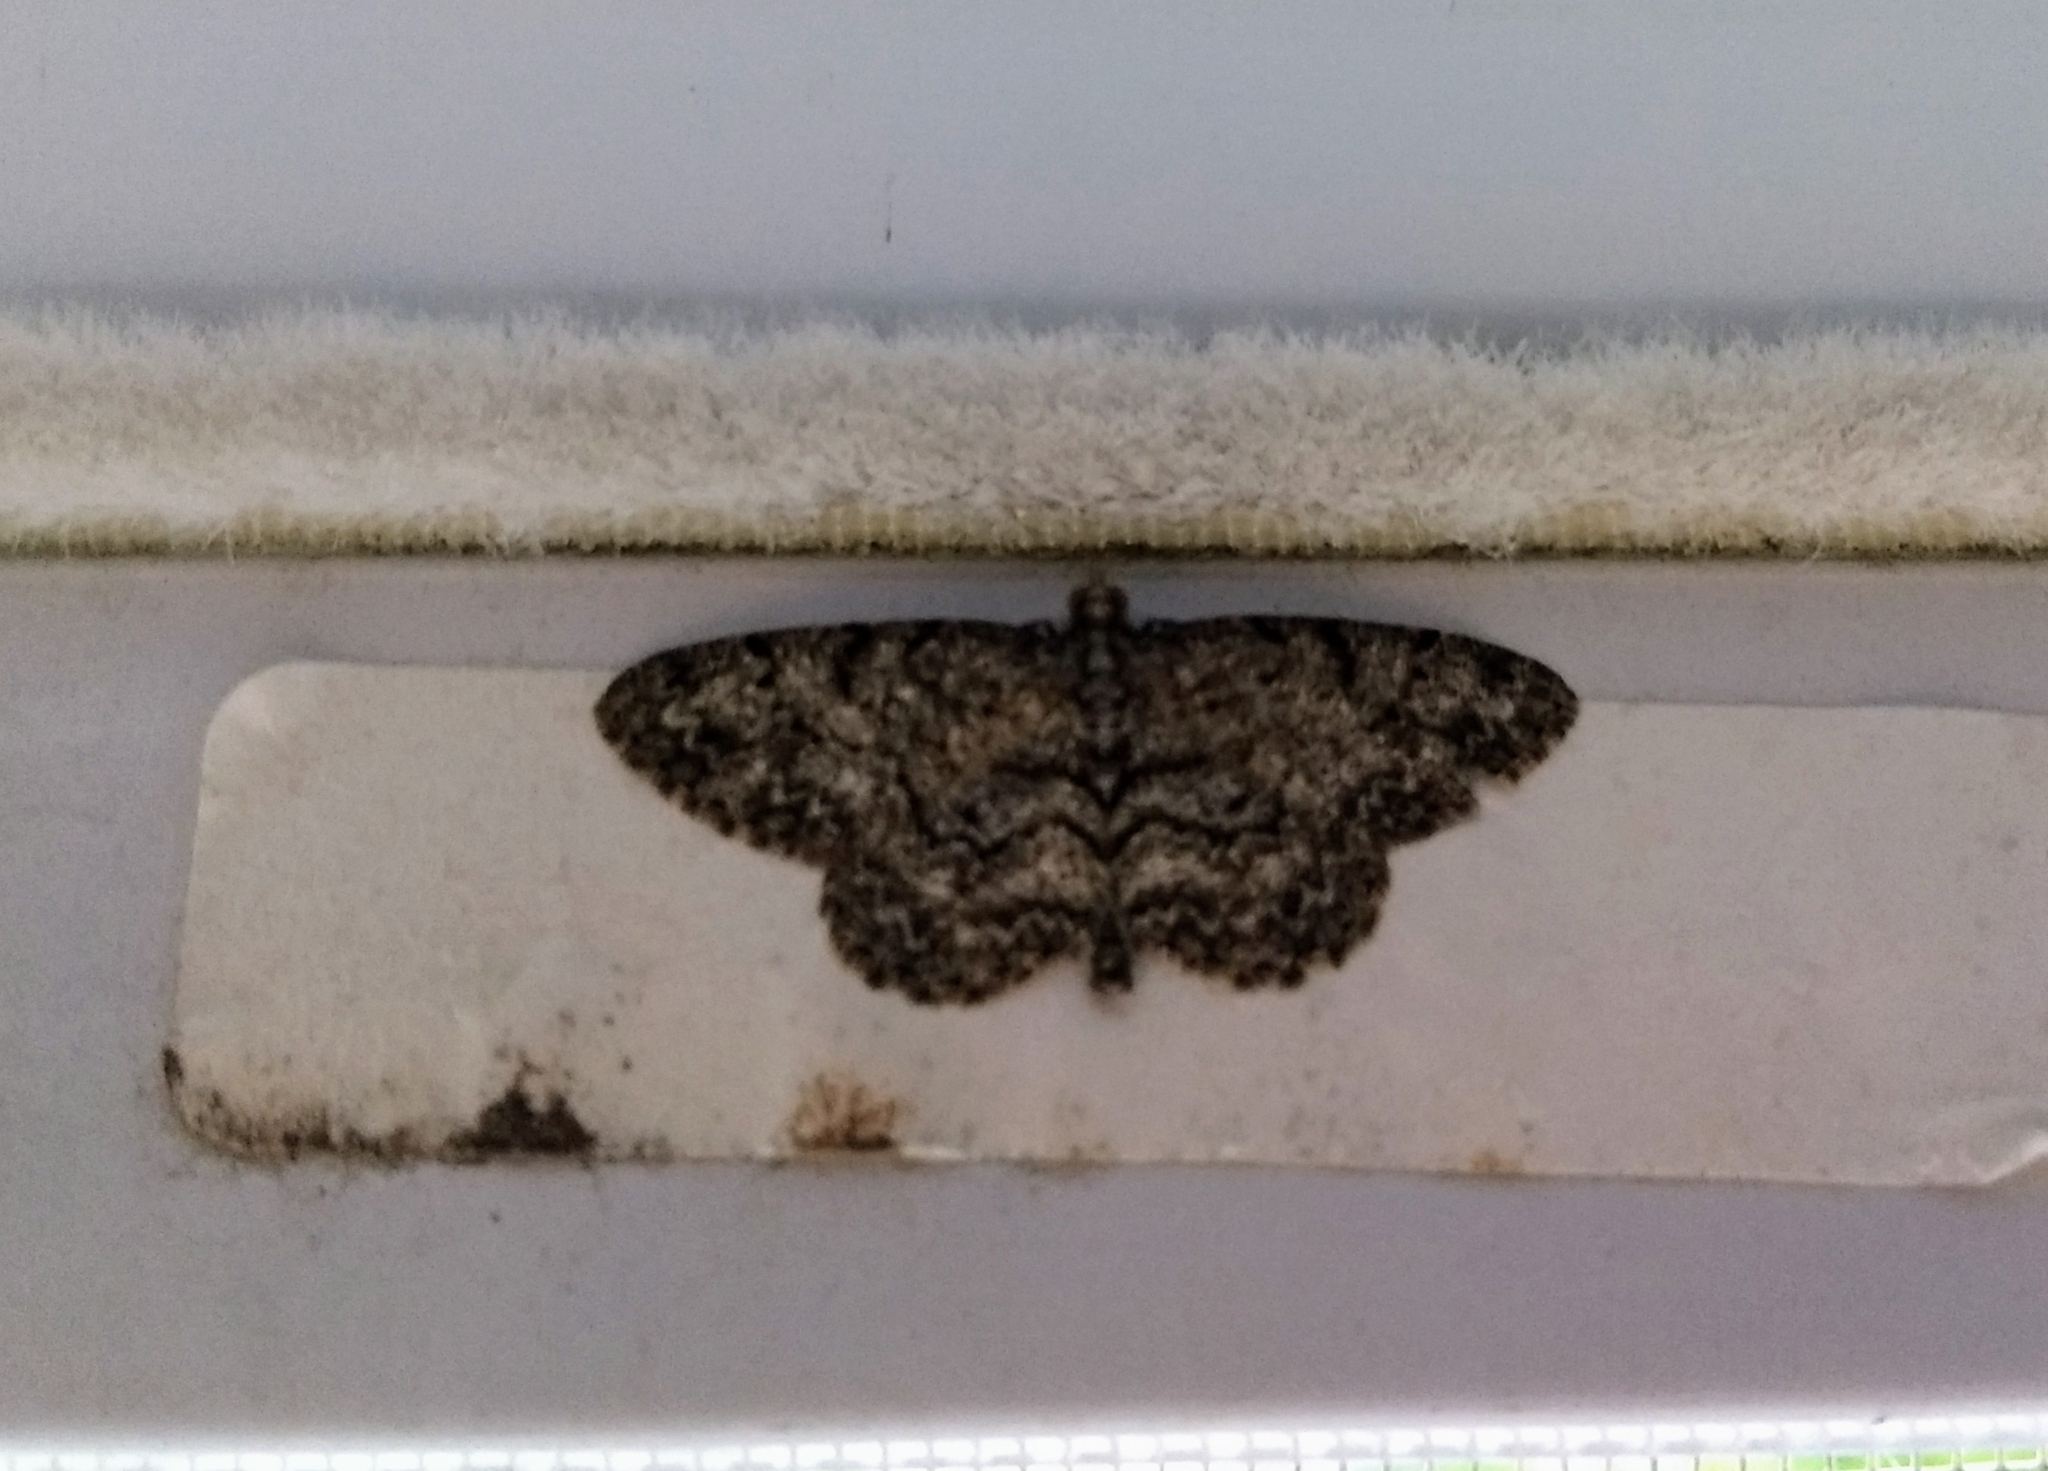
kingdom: Animalia
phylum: Arthropoda
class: Insecta
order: Lepidoptera
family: Geometridae
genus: Protoboarmia
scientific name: Protoboarmia porcelaria
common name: Porcelain gray
